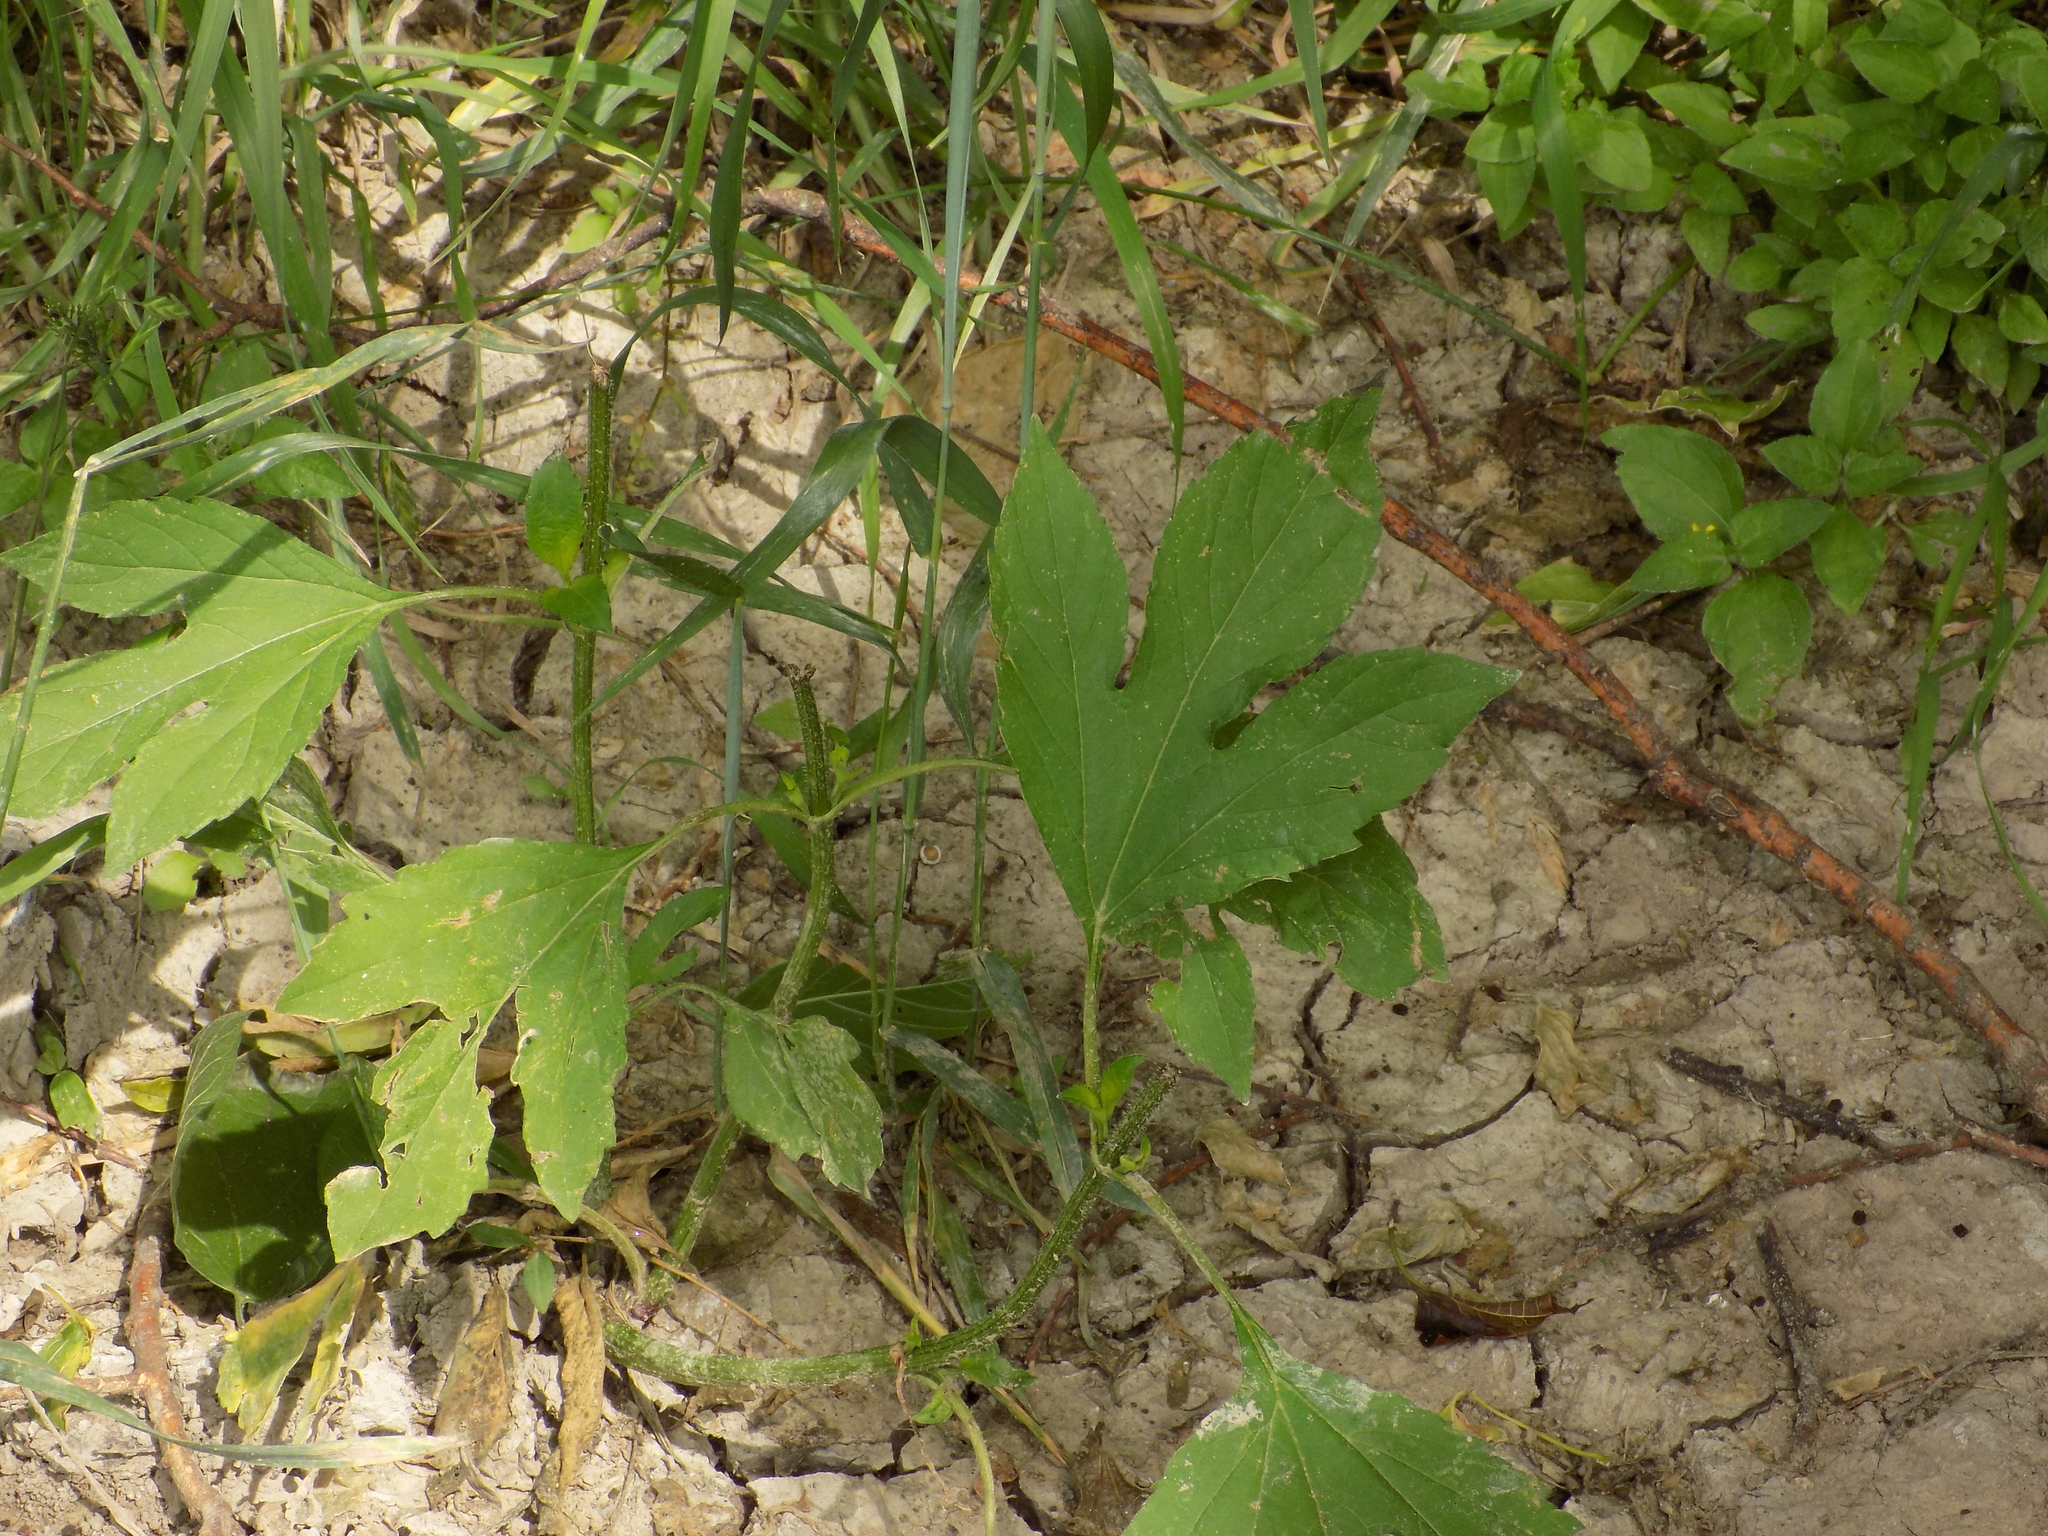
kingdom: Plantae
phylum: Tracheophyta
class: Magnoliopsida
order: Asterales
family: Asteraceae
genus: Ambrosia
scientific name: Ambrosia trifida
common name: Giant ragweed
